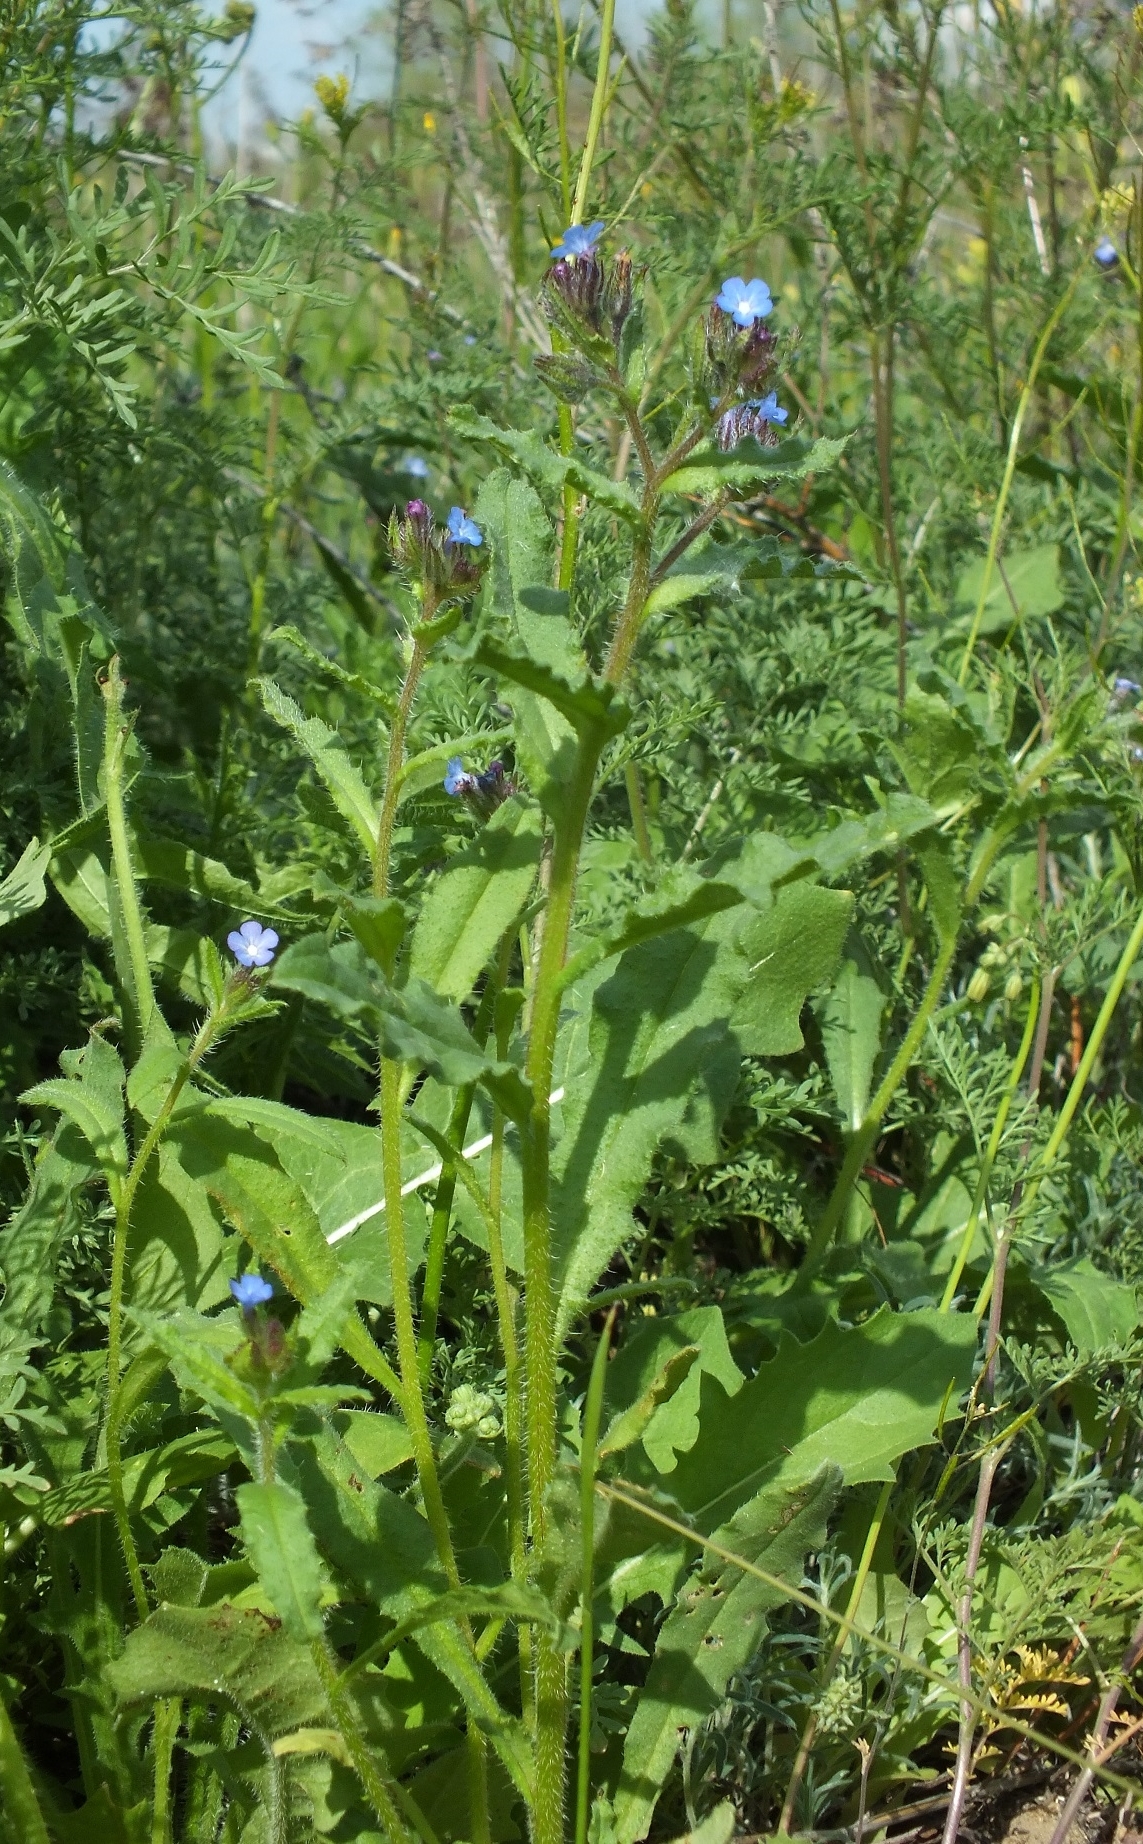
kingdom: Plantae
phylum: Tracheophyta
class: Magnoliopsida
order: Boraginales
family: Boraginaceae
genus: Lycopsis
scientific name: Lycopsis arvensis
